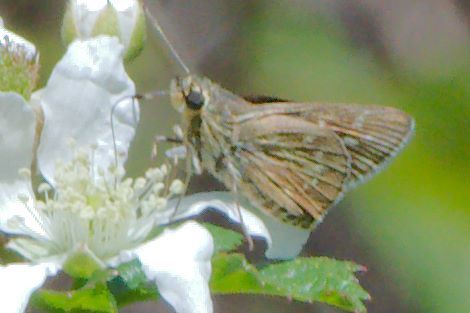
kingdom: Animalia
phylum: Arthropoda
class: Insecta
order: Lepidoptera
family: Hesperiidae
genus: Mastor
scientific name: Mastor carolina
